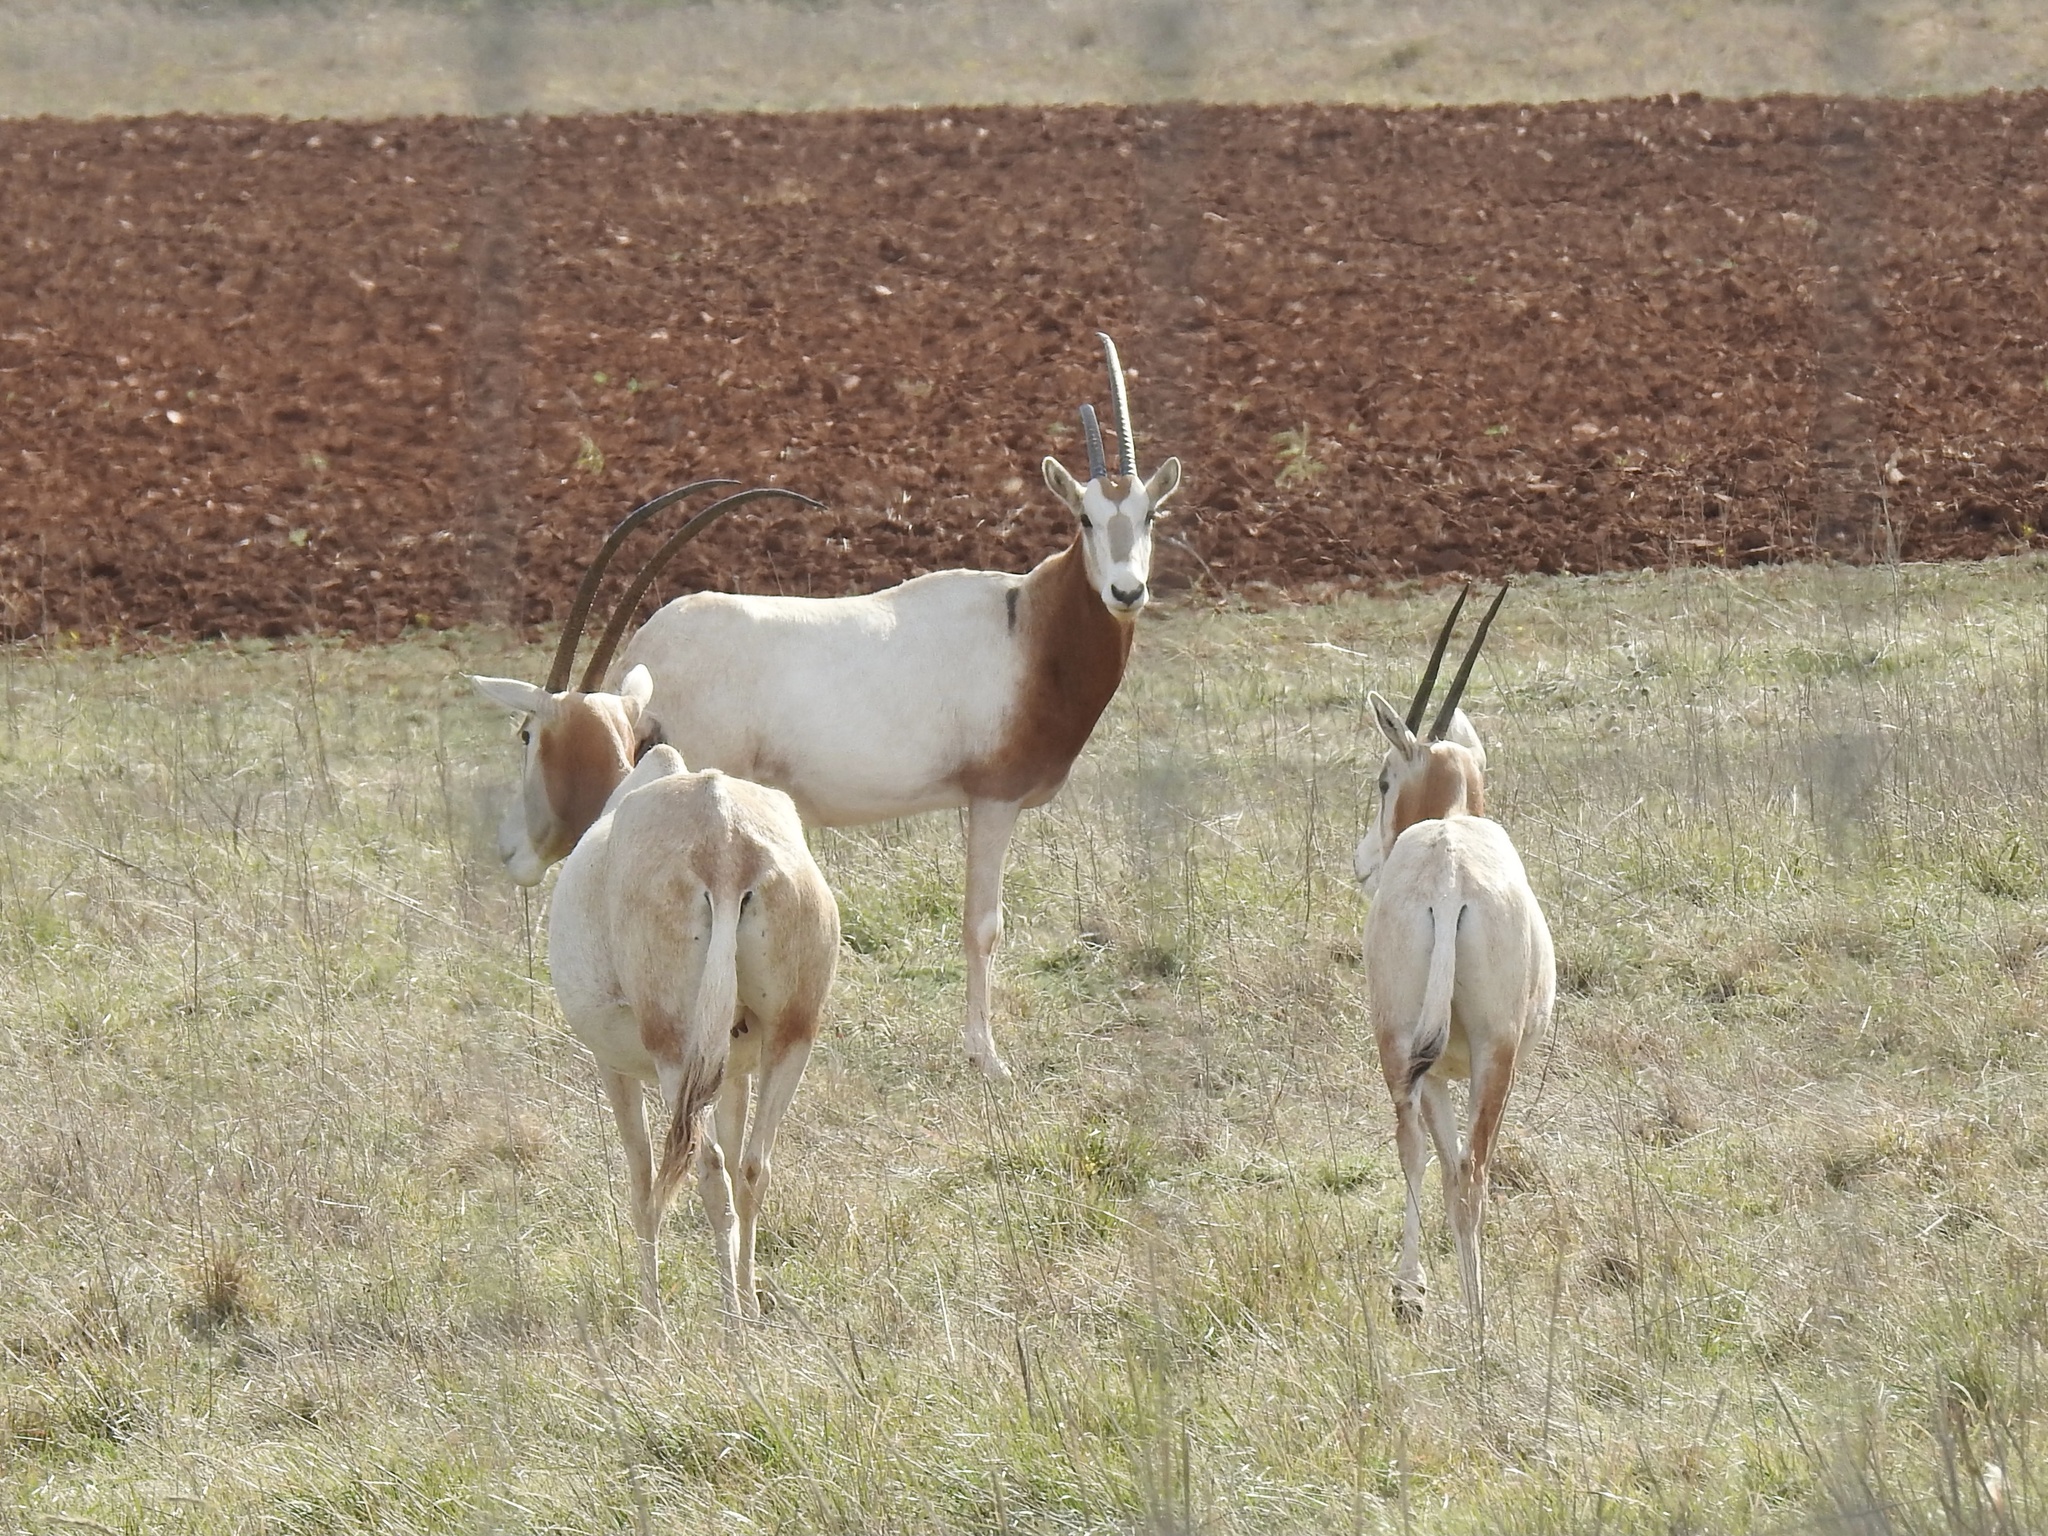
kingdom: Animalia
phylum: Chordata
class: Mammalia
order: Artiodactyla
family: Bovidae
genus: Oryx
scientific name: Oryx dammah
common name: Scimitar-horned oryx
